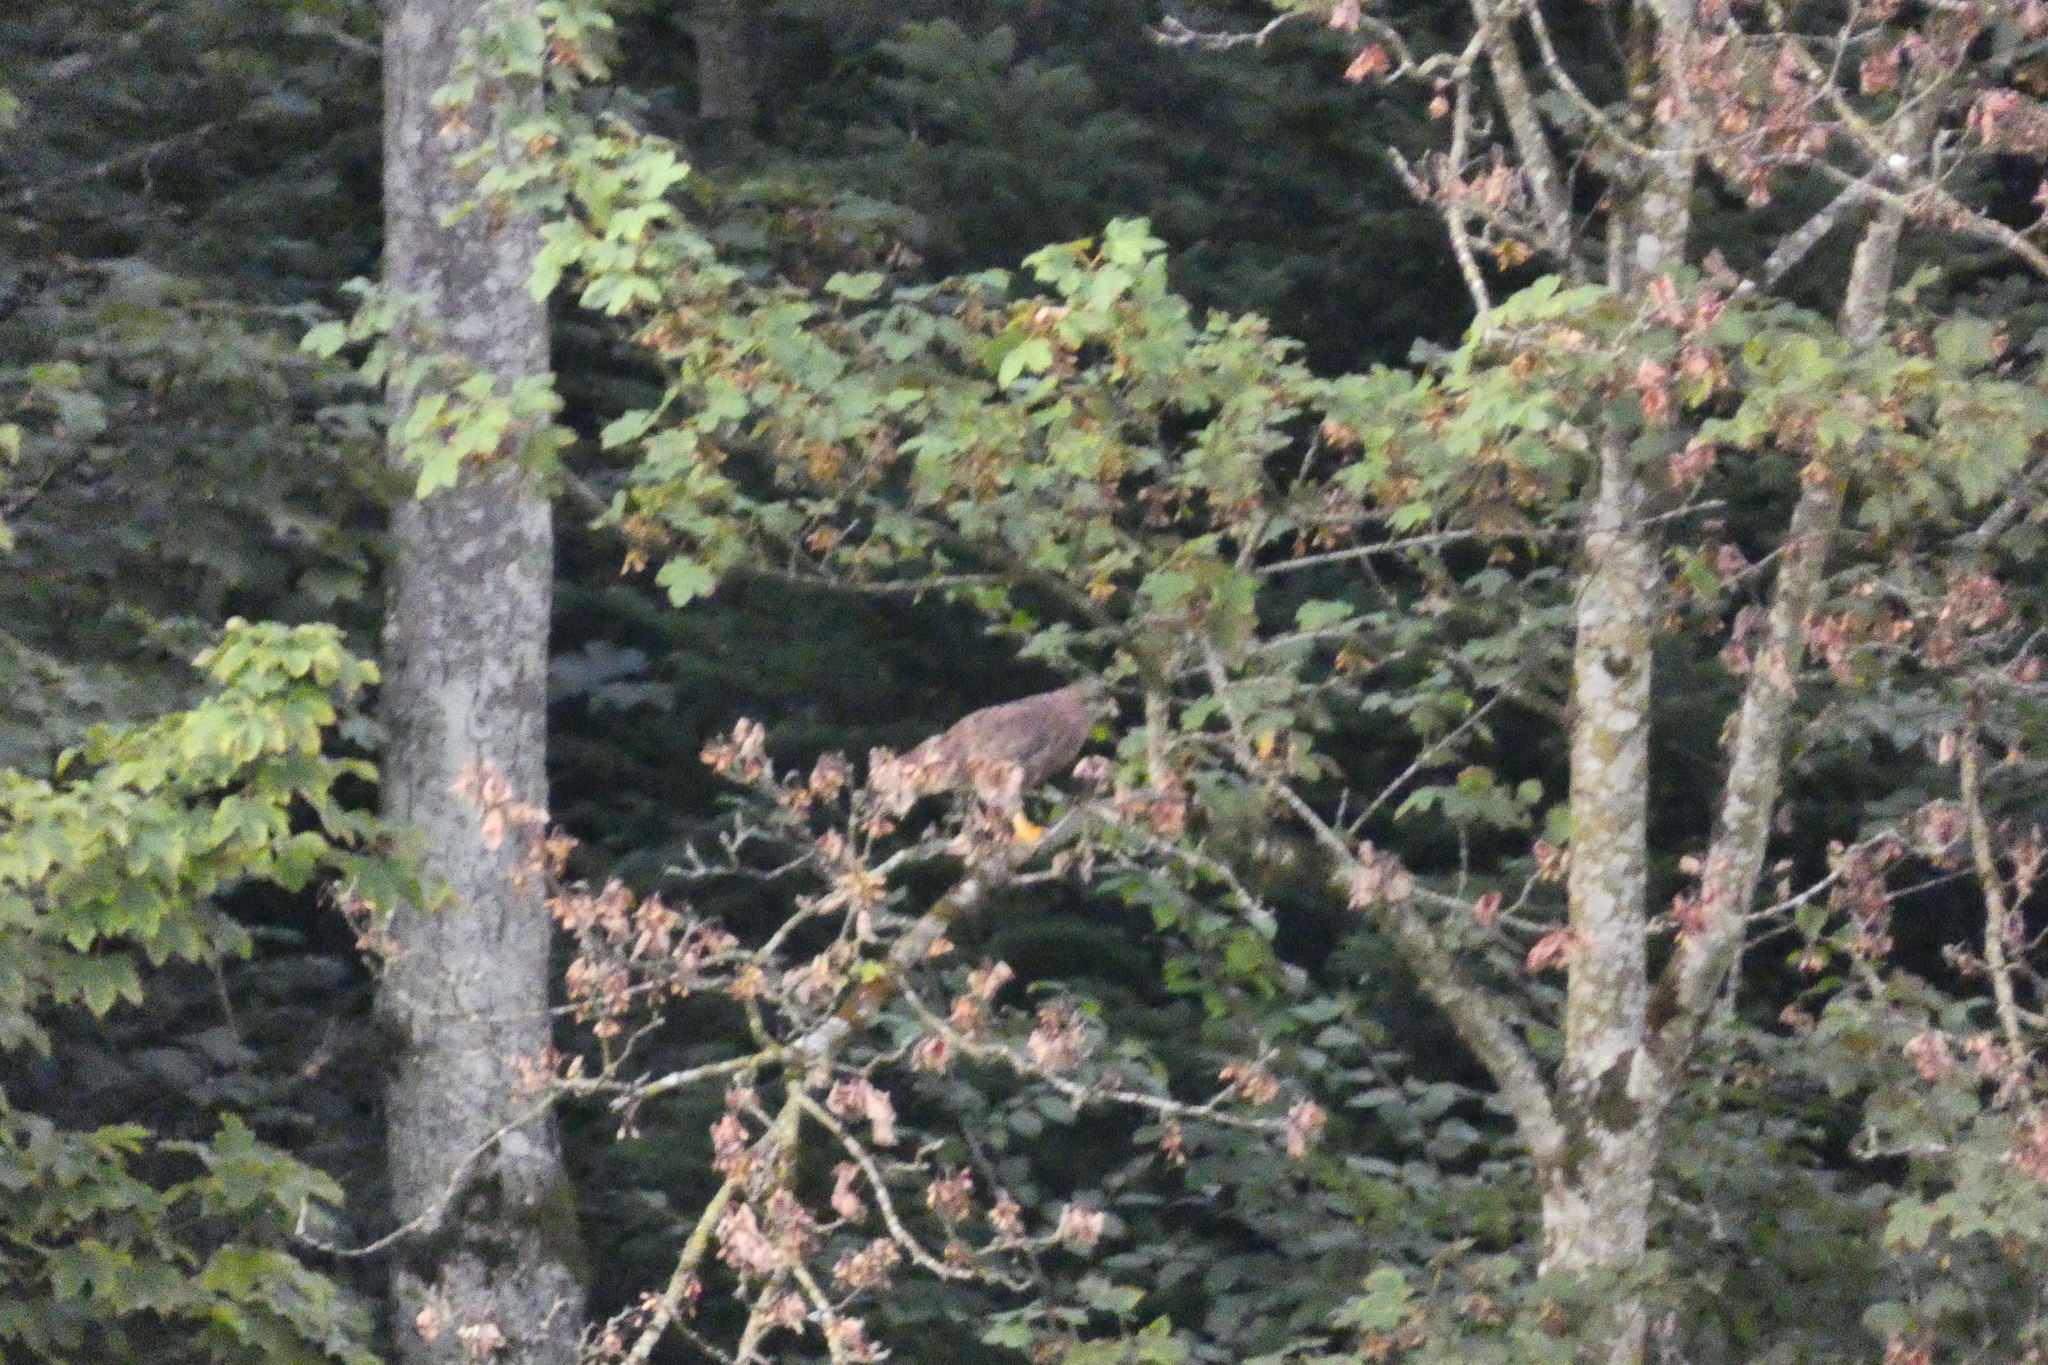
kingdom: Animalia
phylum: Chordata
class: Aves
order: Accipitriformes
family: Accipitridae
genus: Buteo
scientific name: Buteo buteo
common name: Common buzzard
